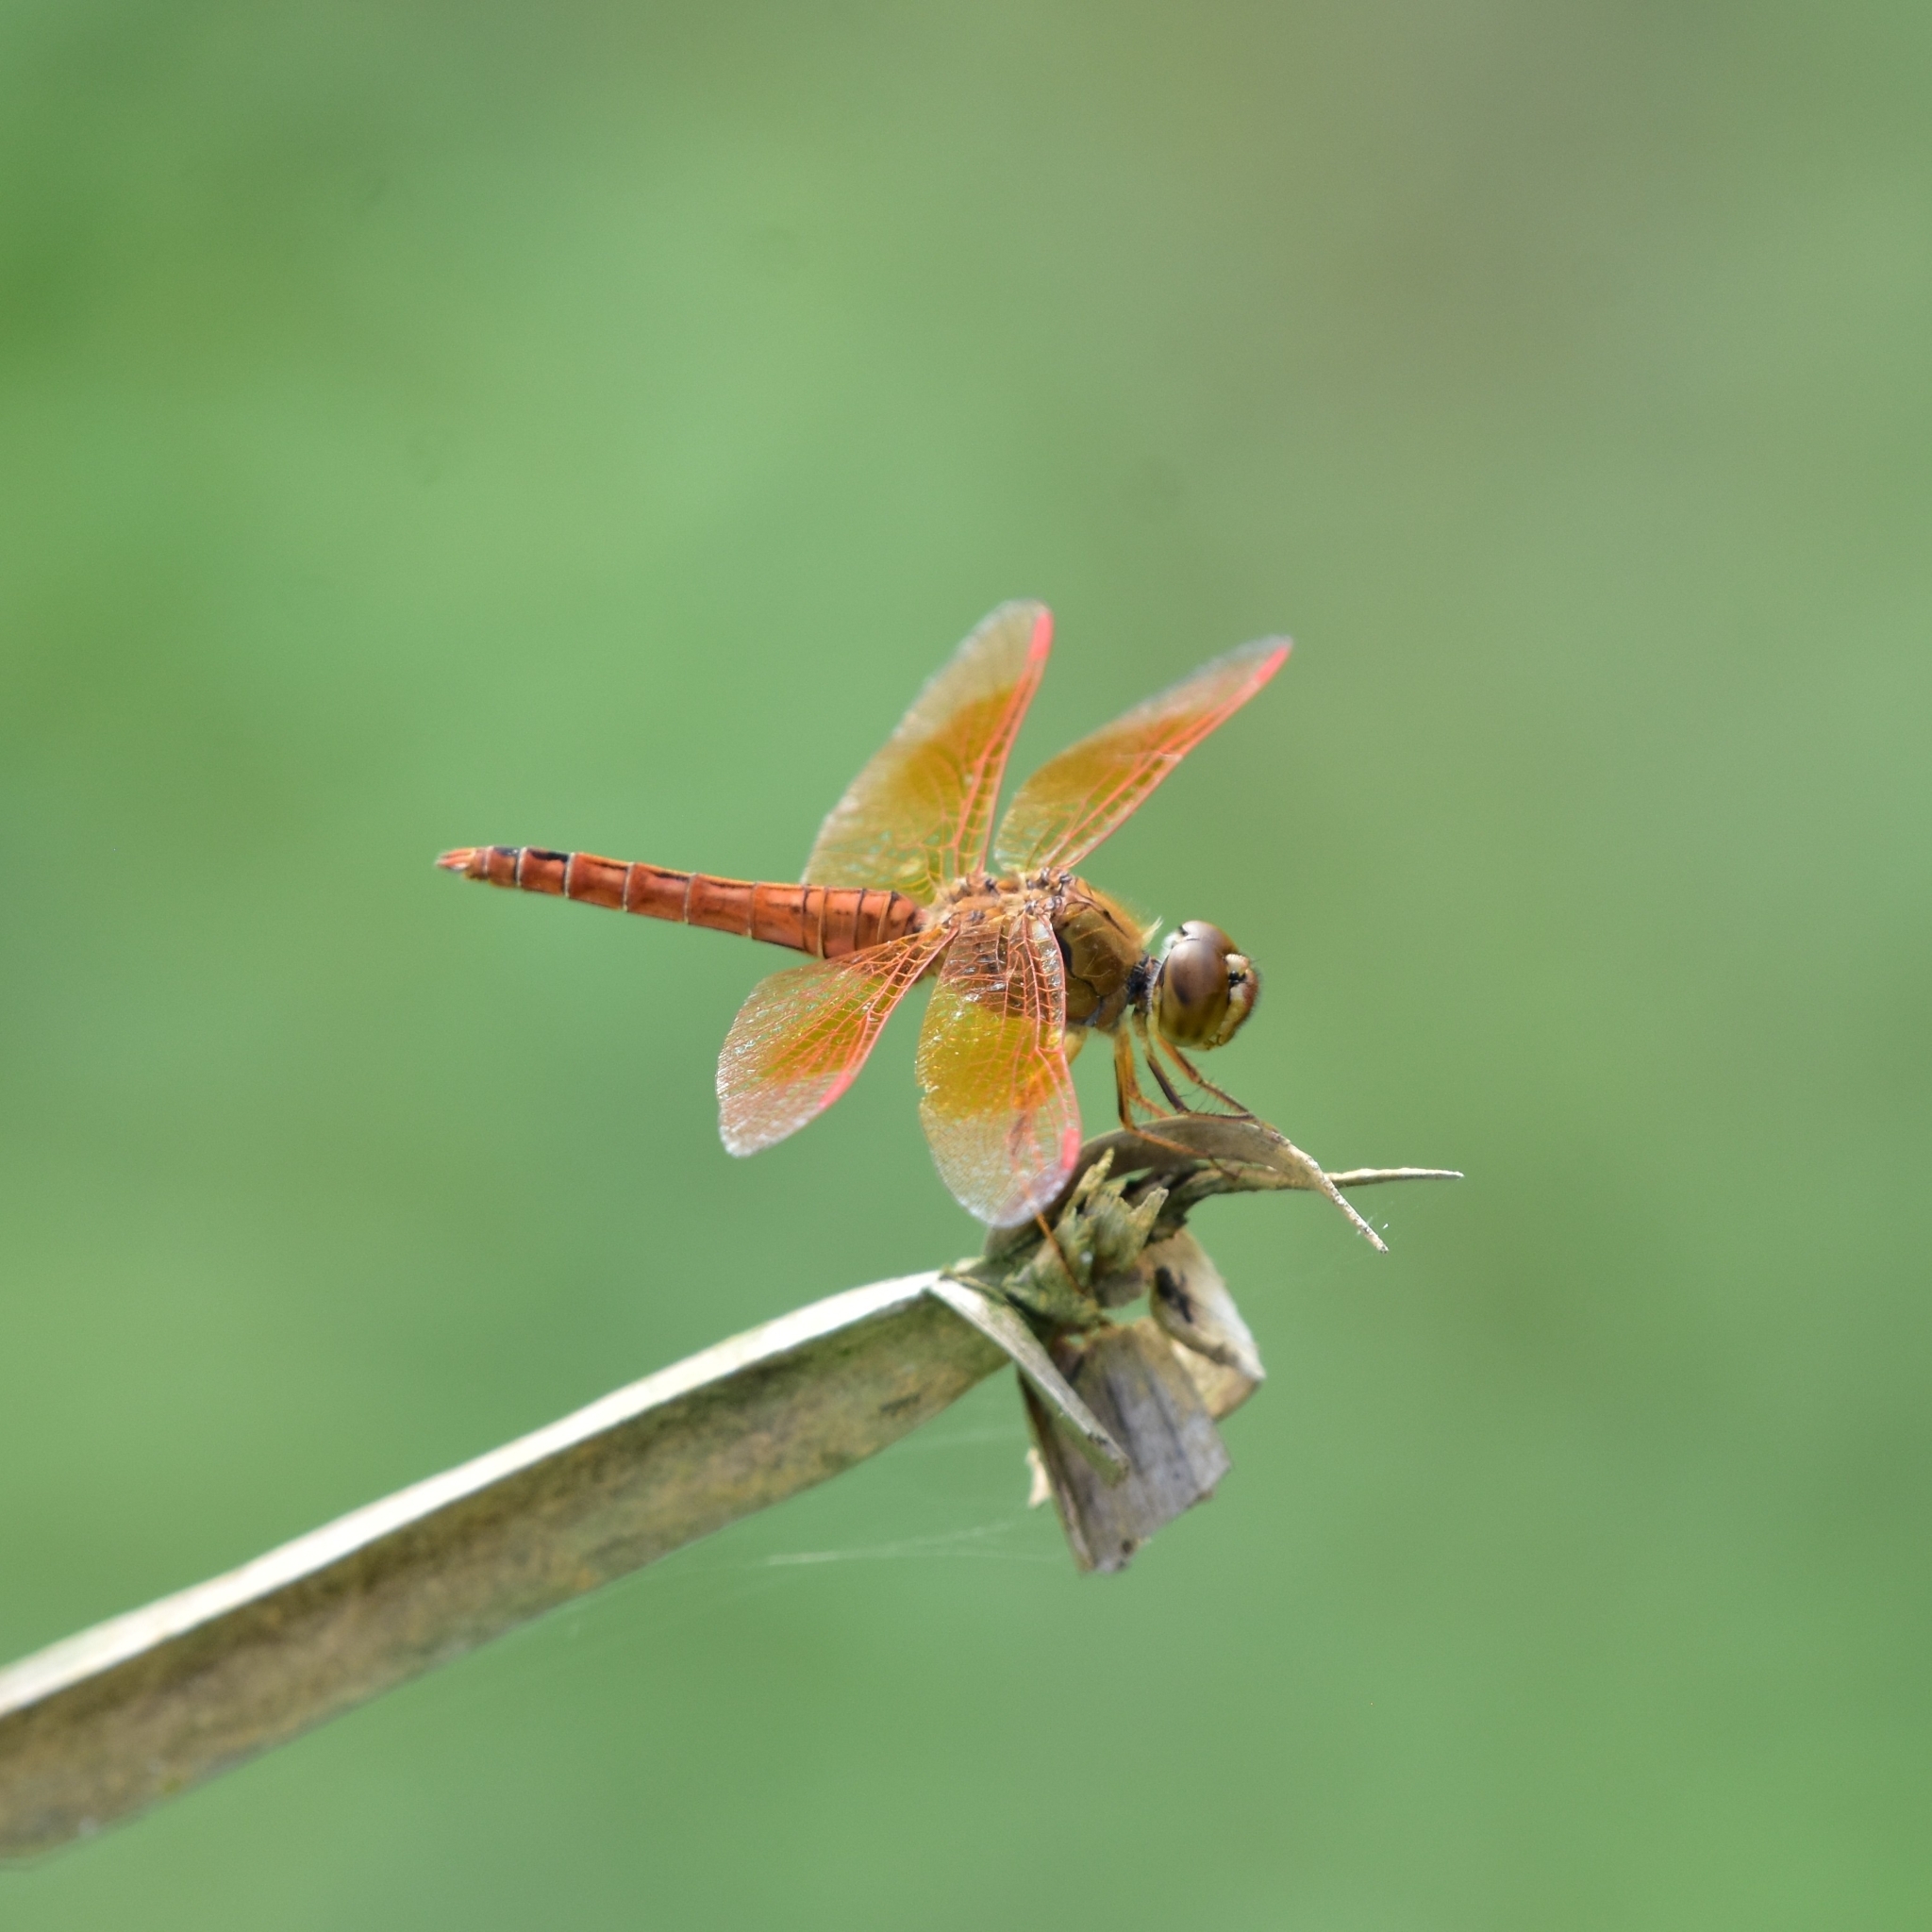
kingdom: Animalia
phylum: Arthropoda
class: Insecta
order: Odonata
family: Libellulidae
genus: Brachythemis
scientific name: Brachythemis contaminata
